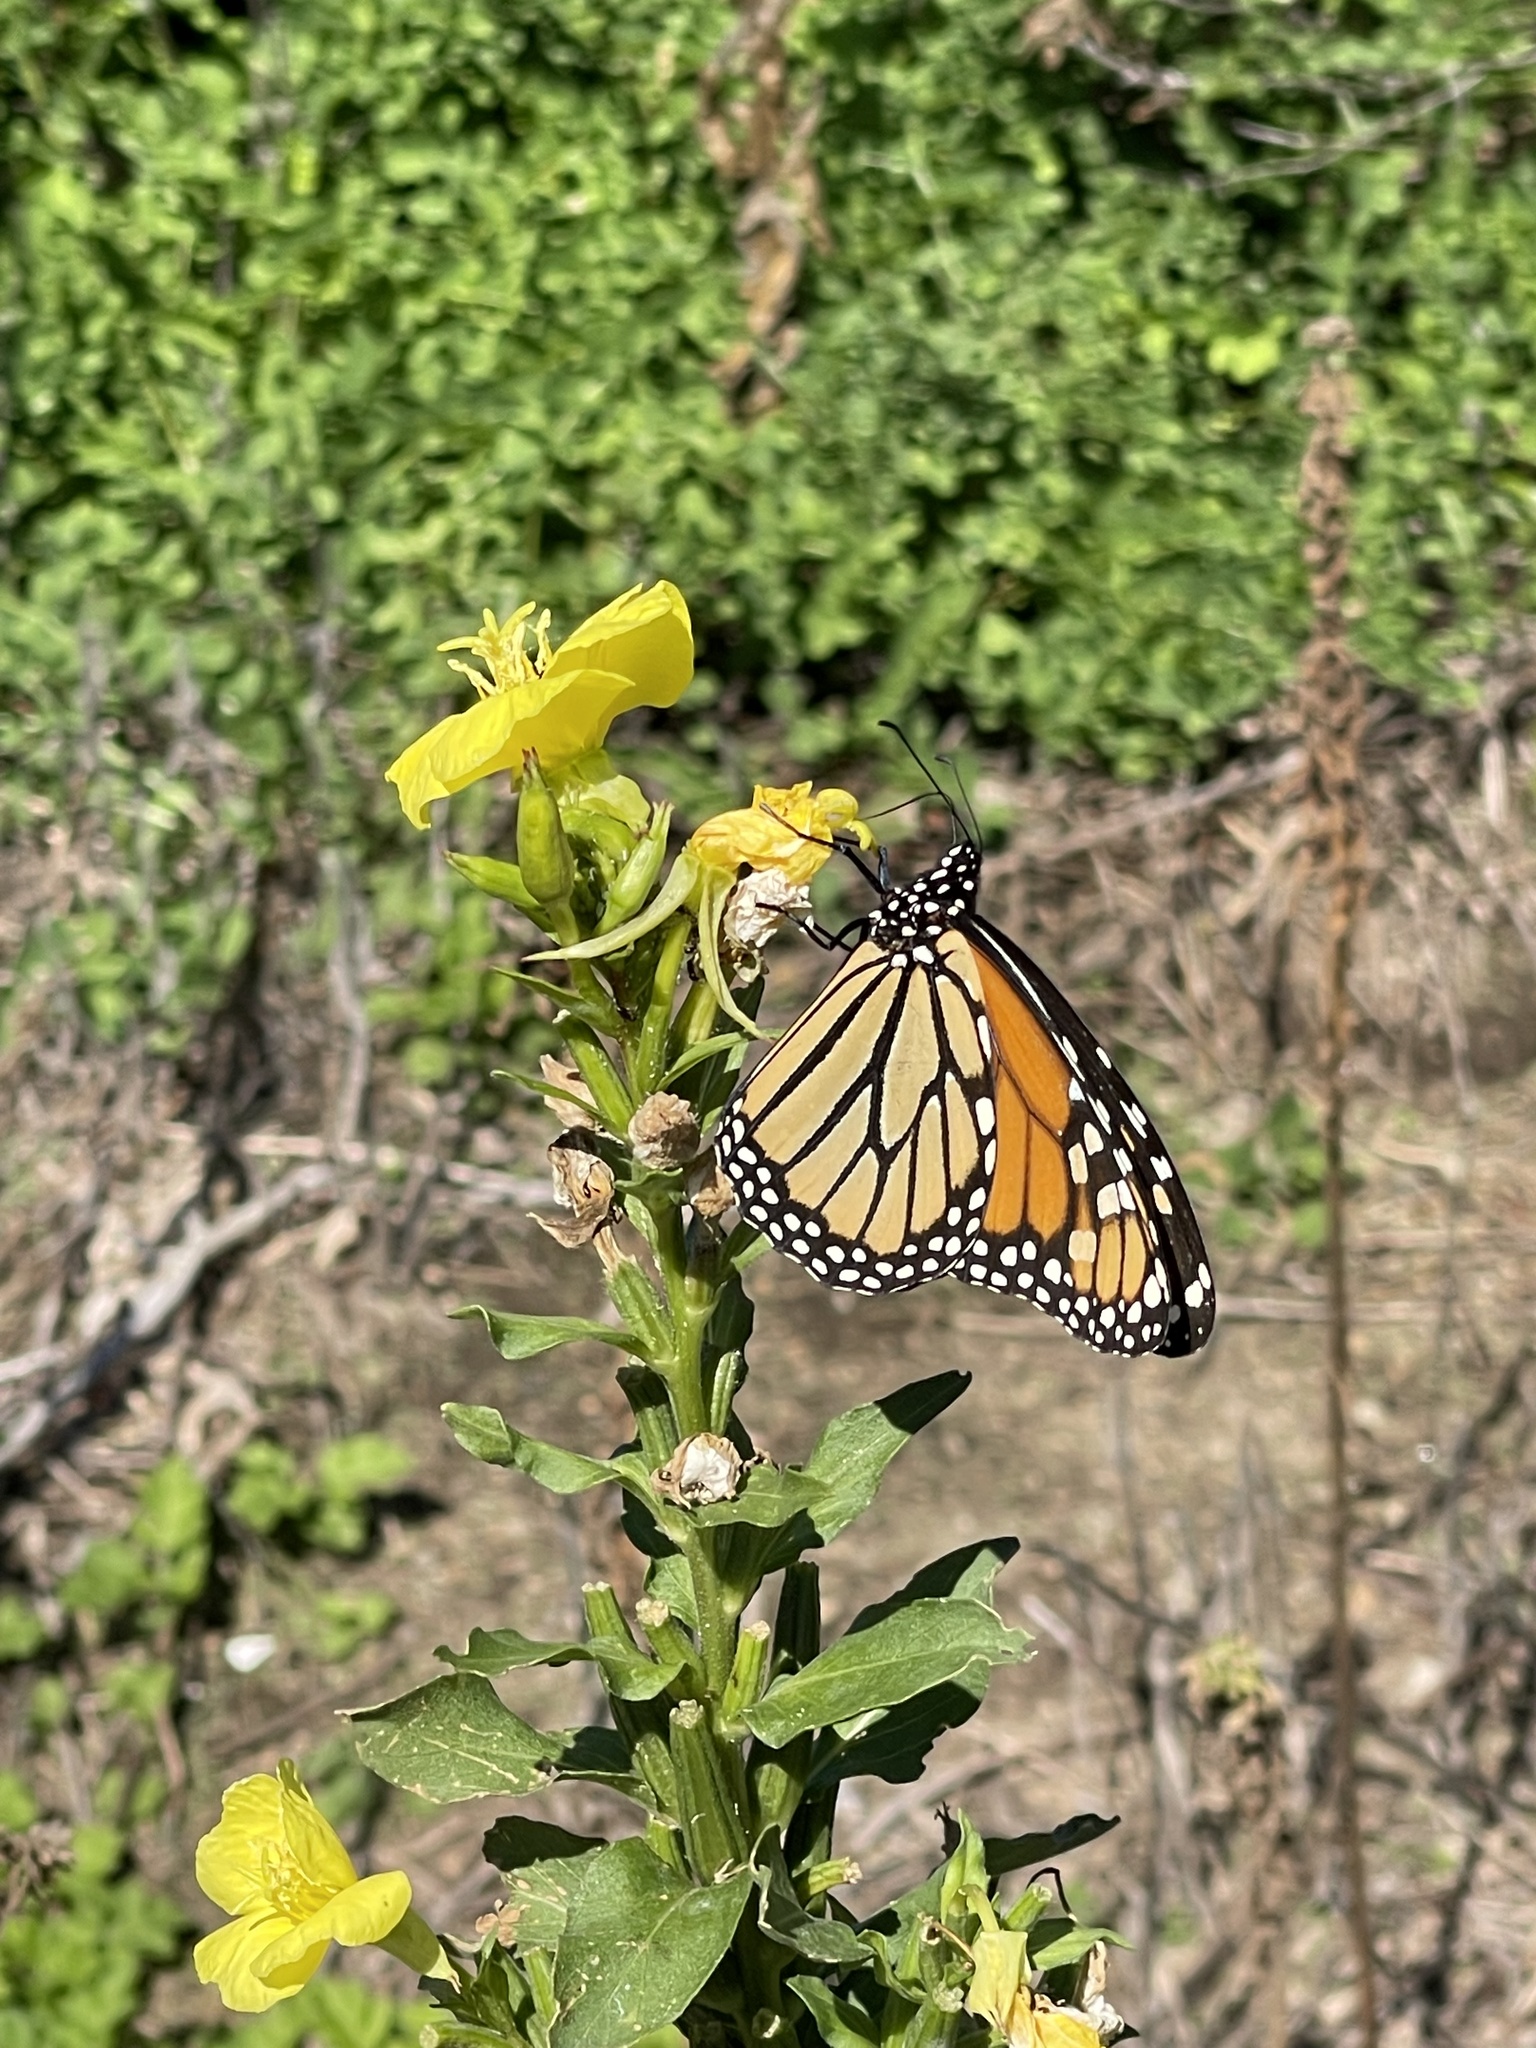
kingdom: Animalia
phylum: Arthropoda
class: Insecta
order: Lepidoptera
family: Nymphalidae
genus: Danaus
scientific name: Danaus plexippus
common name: Monarch
